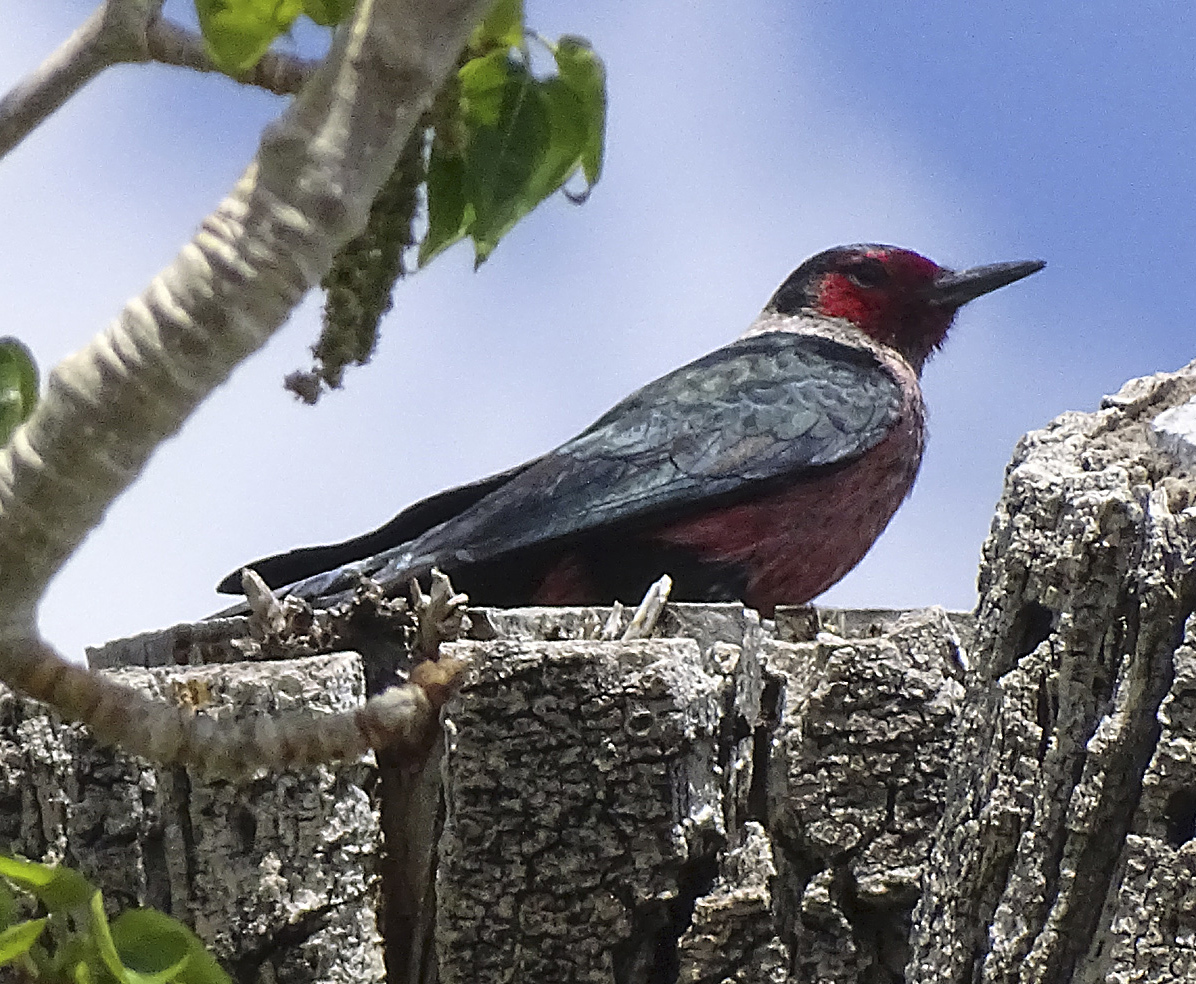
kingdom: Animalia
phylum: Chordata
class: Aves
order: Piciformes
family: Picidae
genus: Melanerpes
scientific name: Melanerpes lewis
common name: Lewis's woodpecker
